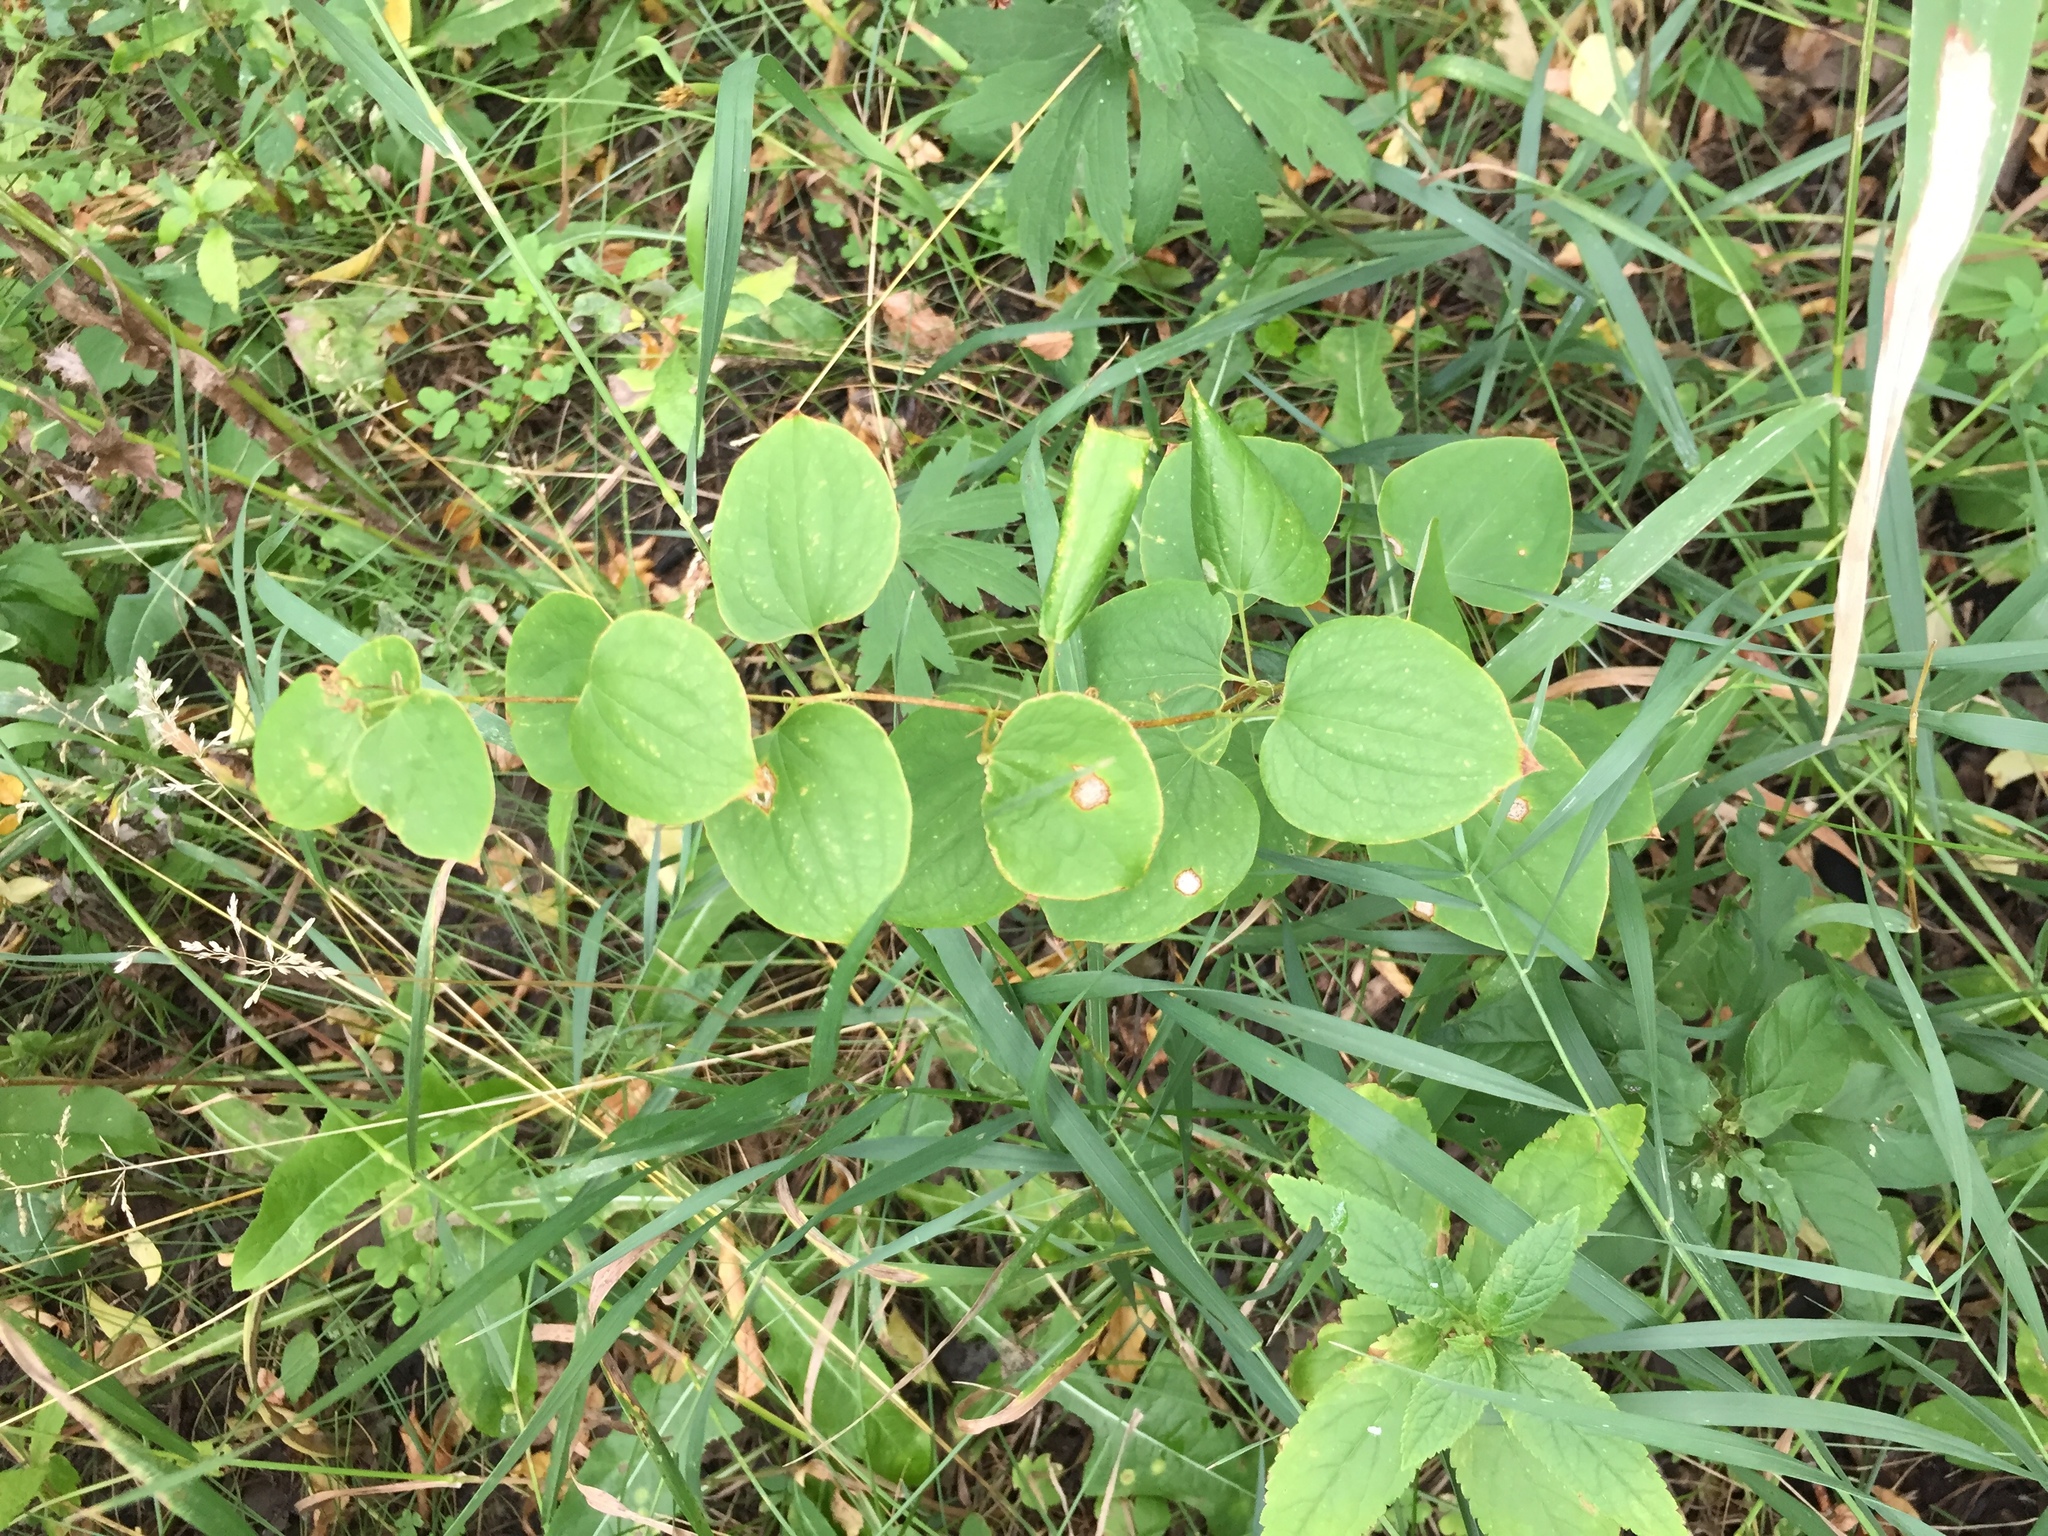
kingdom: Plantae
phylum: Tracheophyta
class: Liliopsida
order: Liliales
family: Smilacaceae
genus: Smilax
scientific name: Smilax lasioneura
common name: Blue ridge carrionflower
